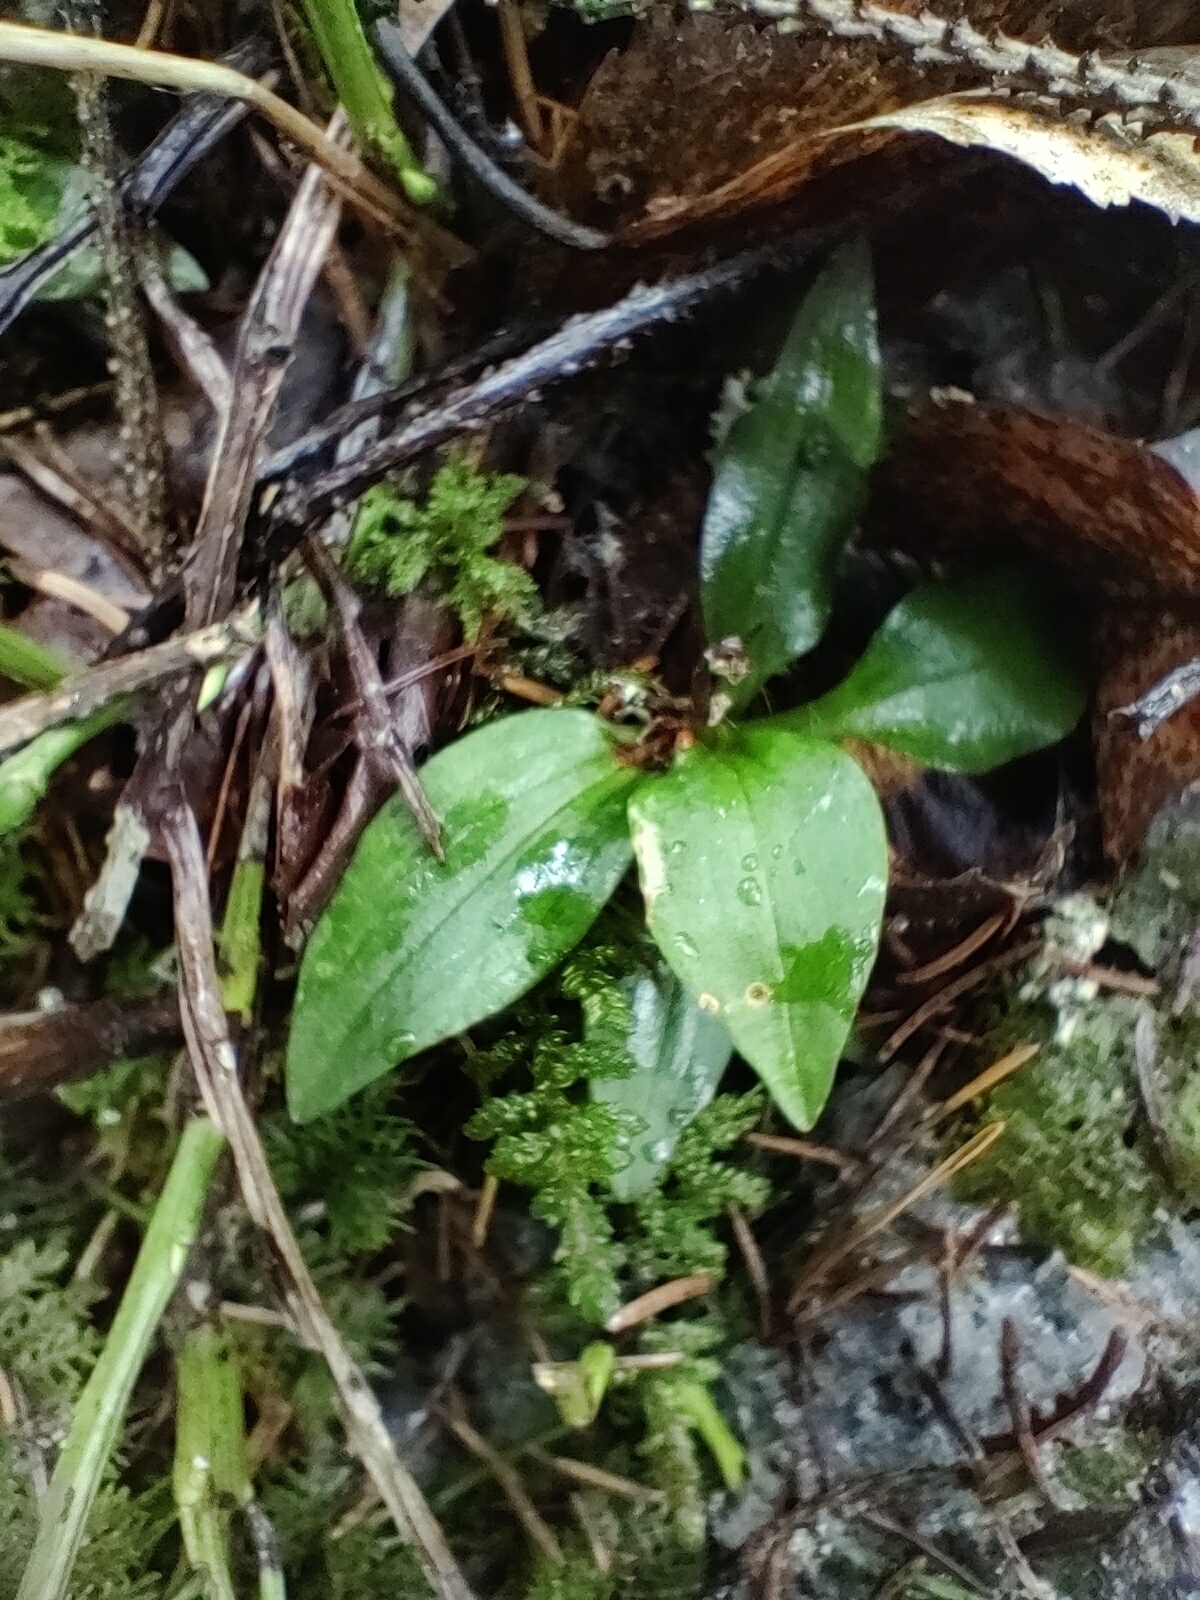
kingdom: Plantae
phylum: Tracheophyta
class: Liliopsida
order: Asparagales
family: Orchidaceae
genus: Goodyera
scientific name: Goodyera repens
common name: Creeping lady's-tresses
